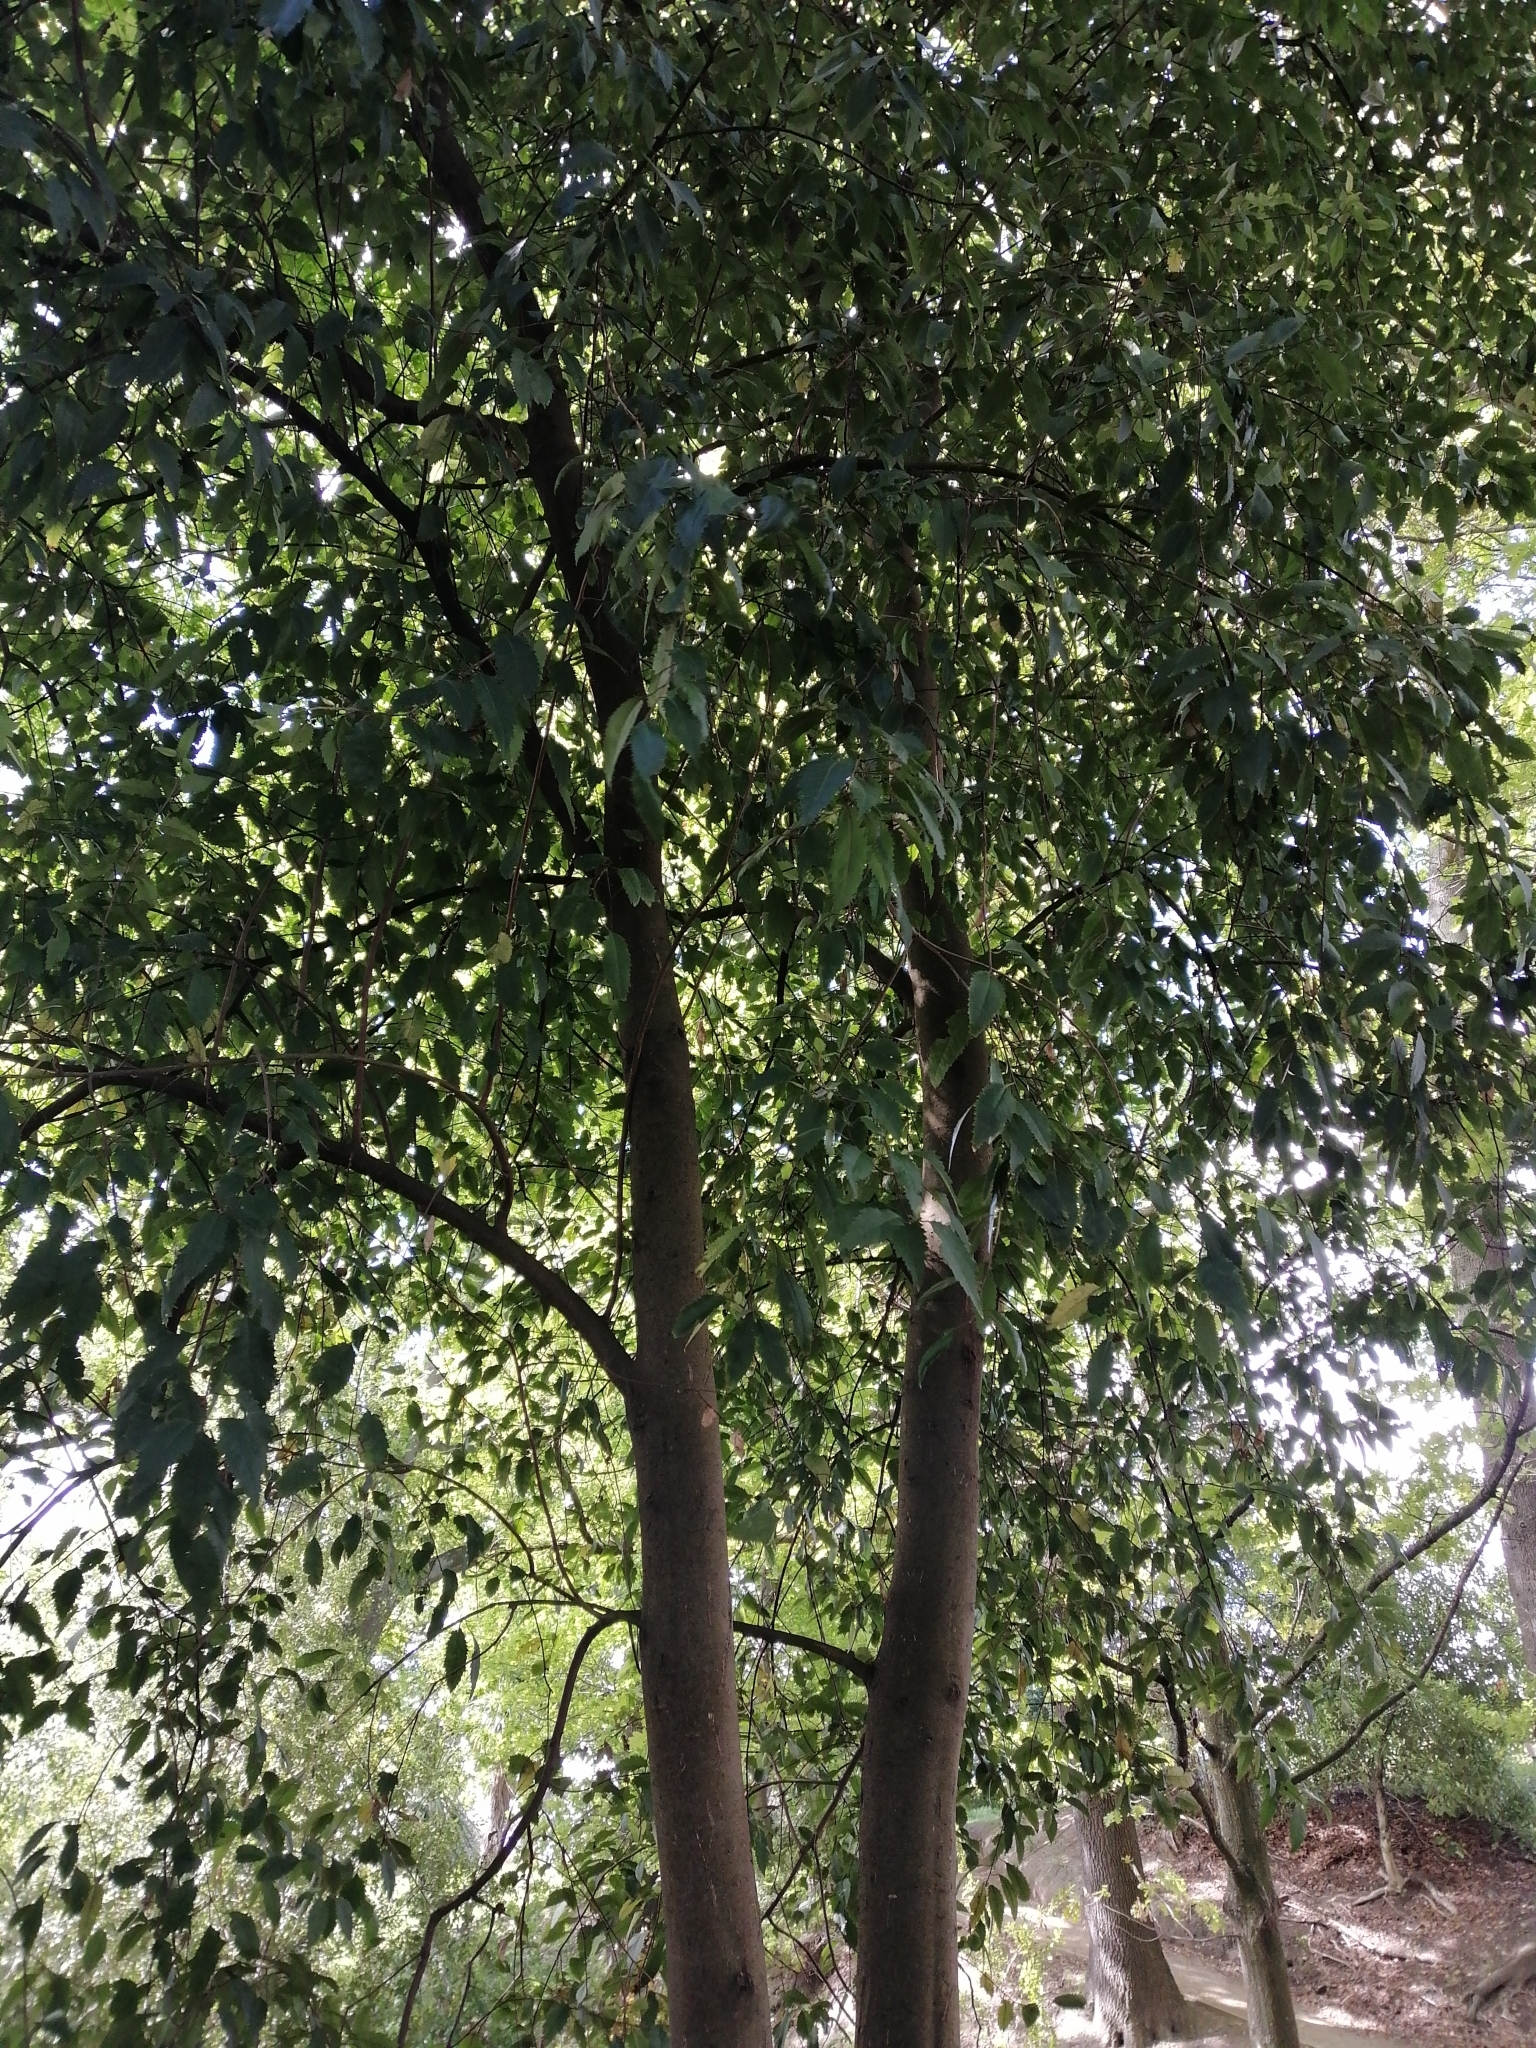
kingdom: Animalia
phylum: Arthropoda
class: Arachnida
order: Trombidiformes
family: Eriophyidae
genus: Eriophyes
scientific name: Eriophyes hoheriae
